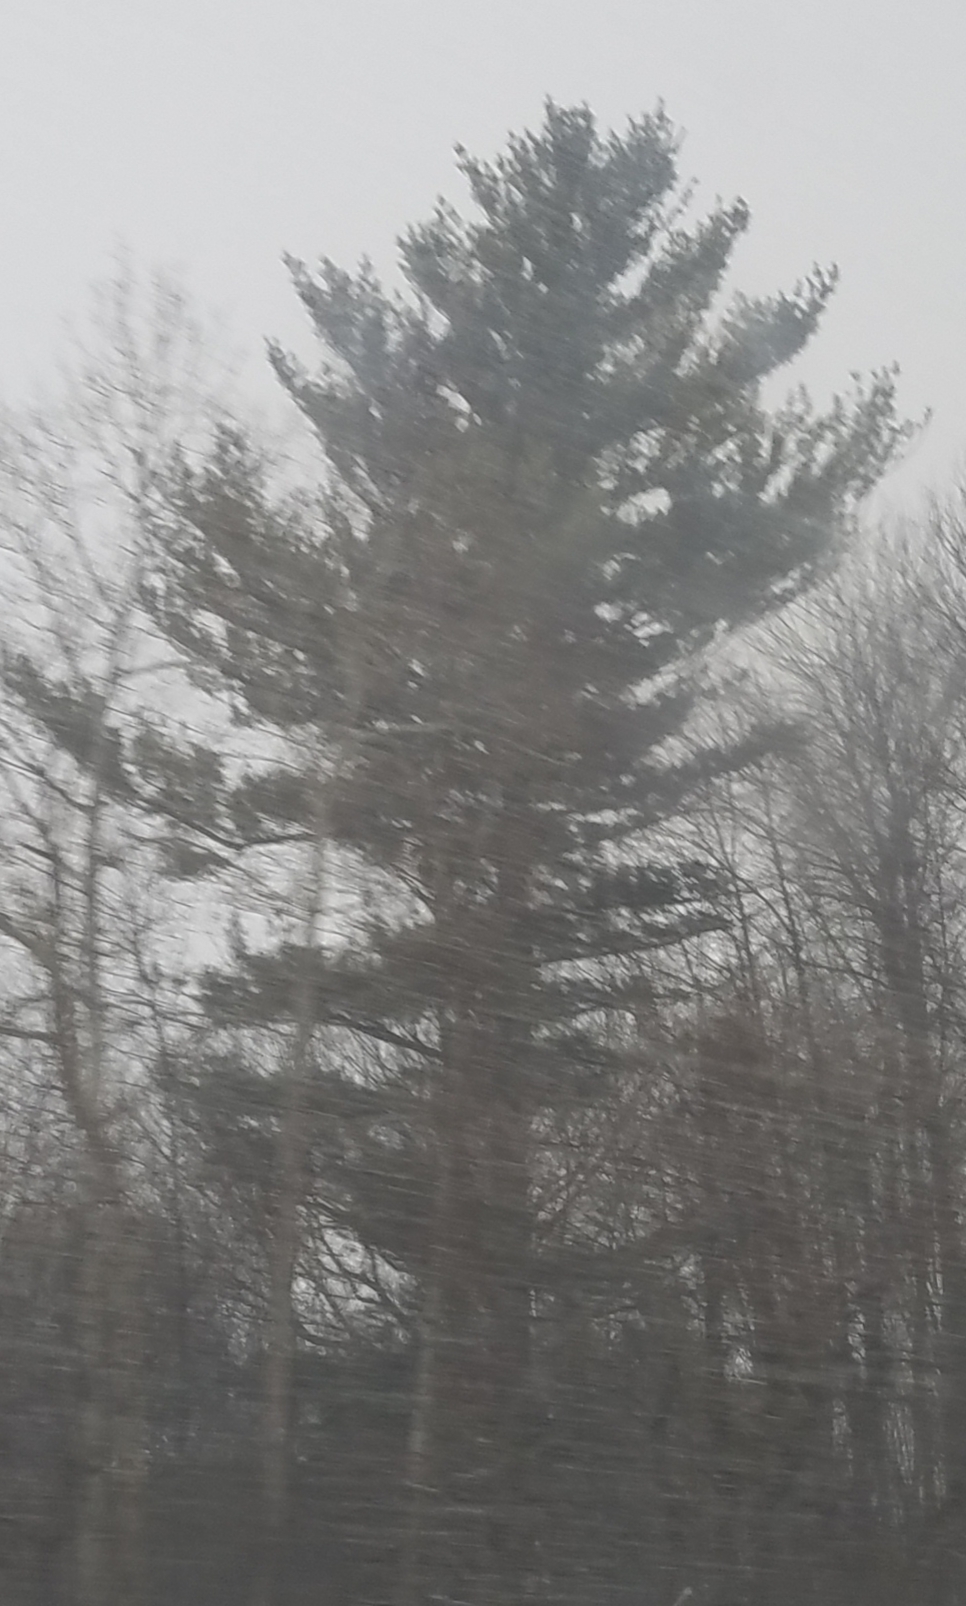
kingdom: Plantae
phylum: Tracheophyta
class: Pinopsida
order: Pinales
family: Pinaceae
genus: Pinus
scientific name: Pinus strobus
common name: Weymouth pine
